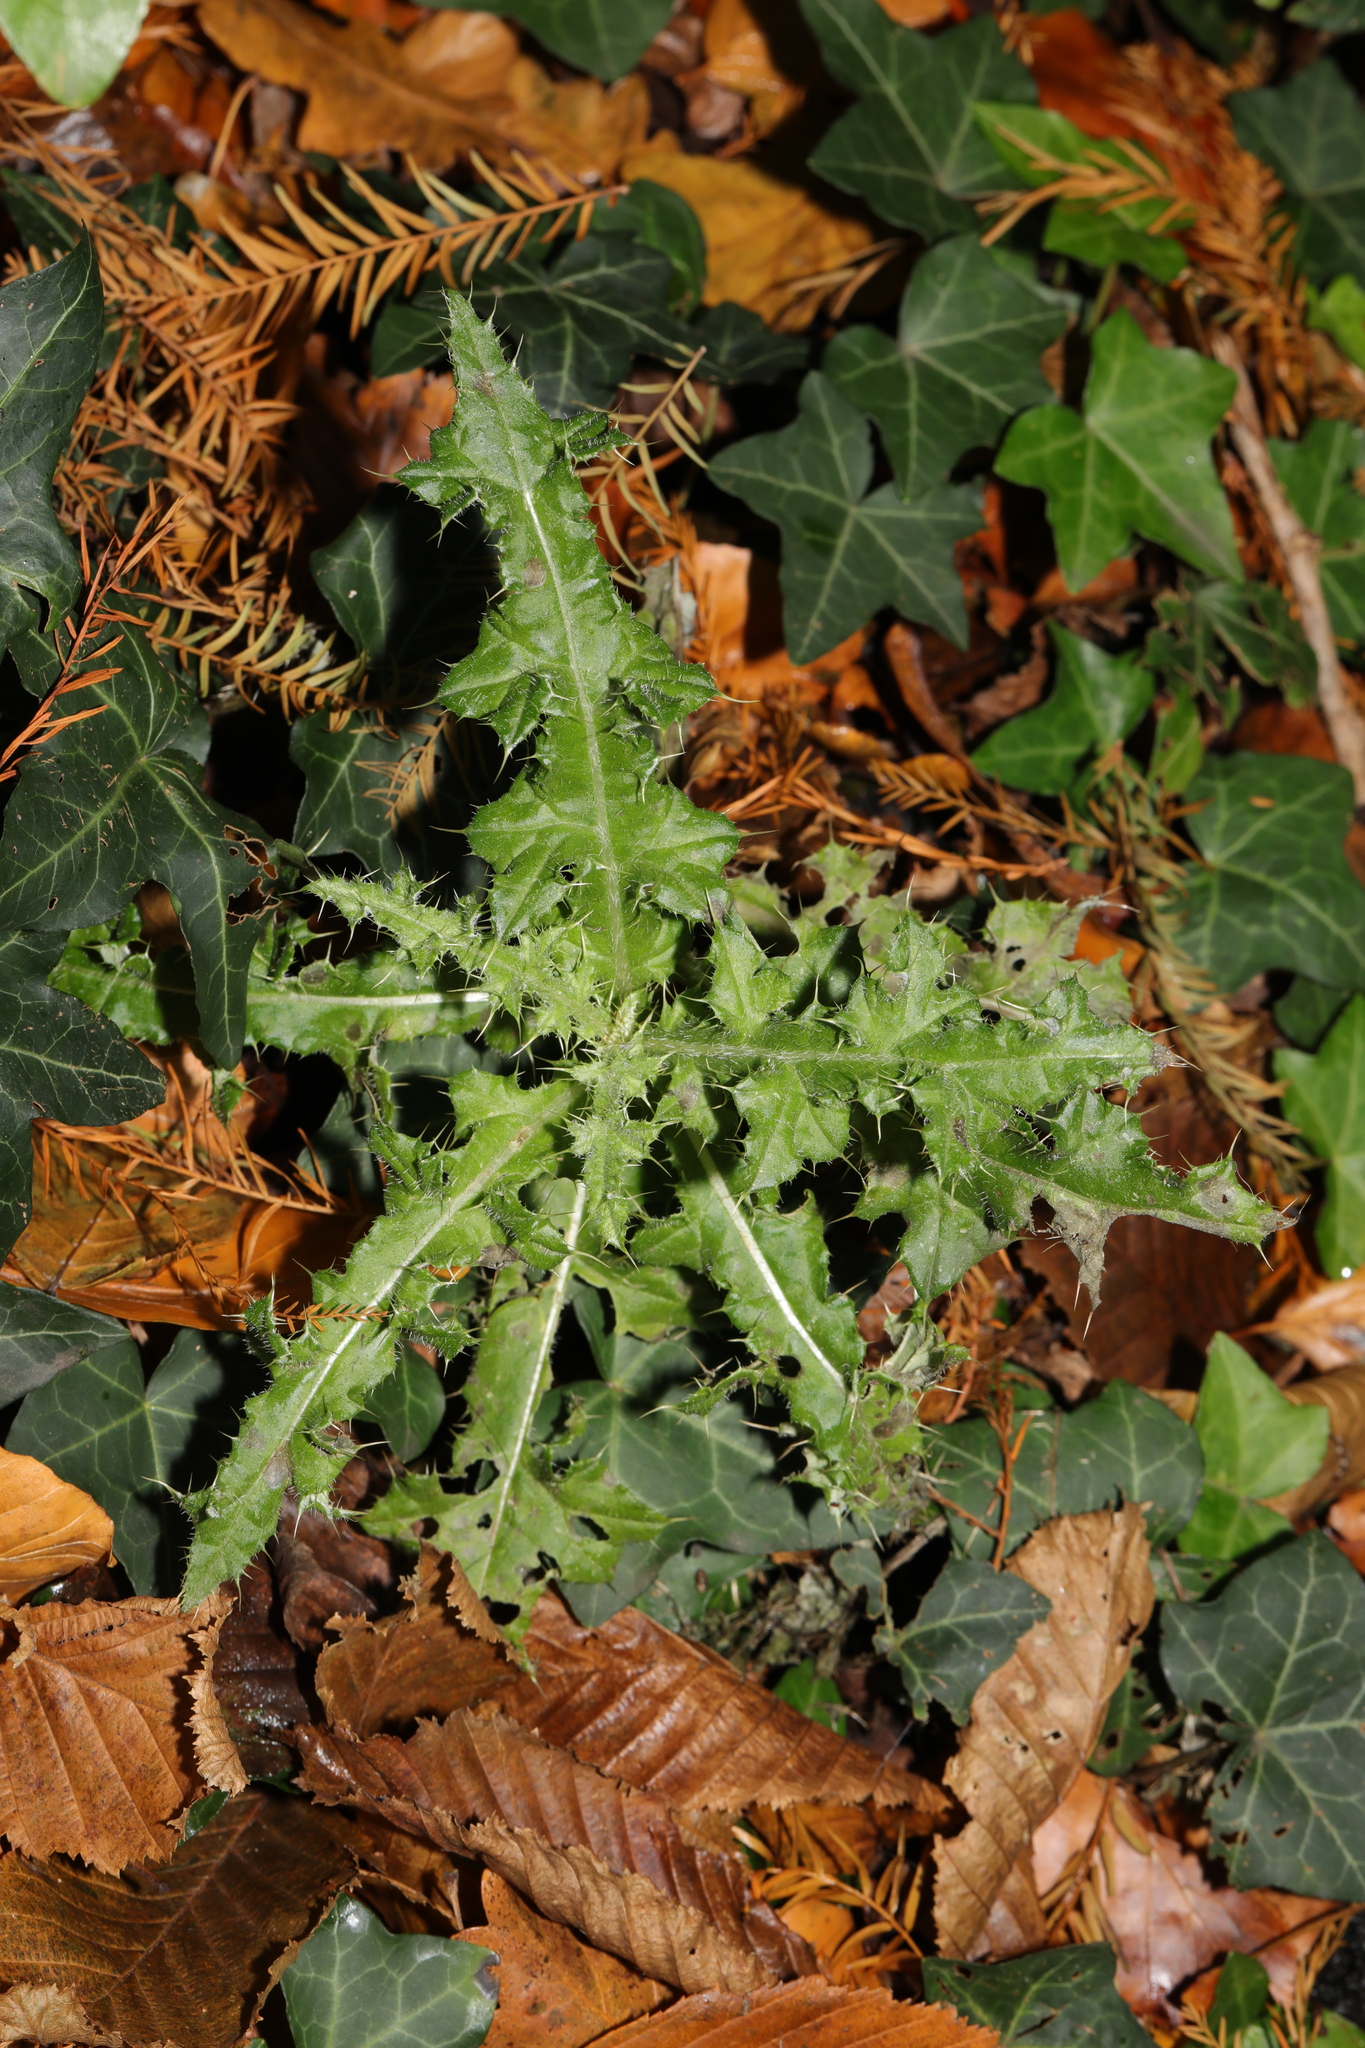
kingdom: Plantae
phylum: Tracheophyta
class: Magnoliopsida
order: Asterales
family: Asteraceae
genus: Cirsium
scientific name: Cirsium arvense
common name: Creeping thistle
